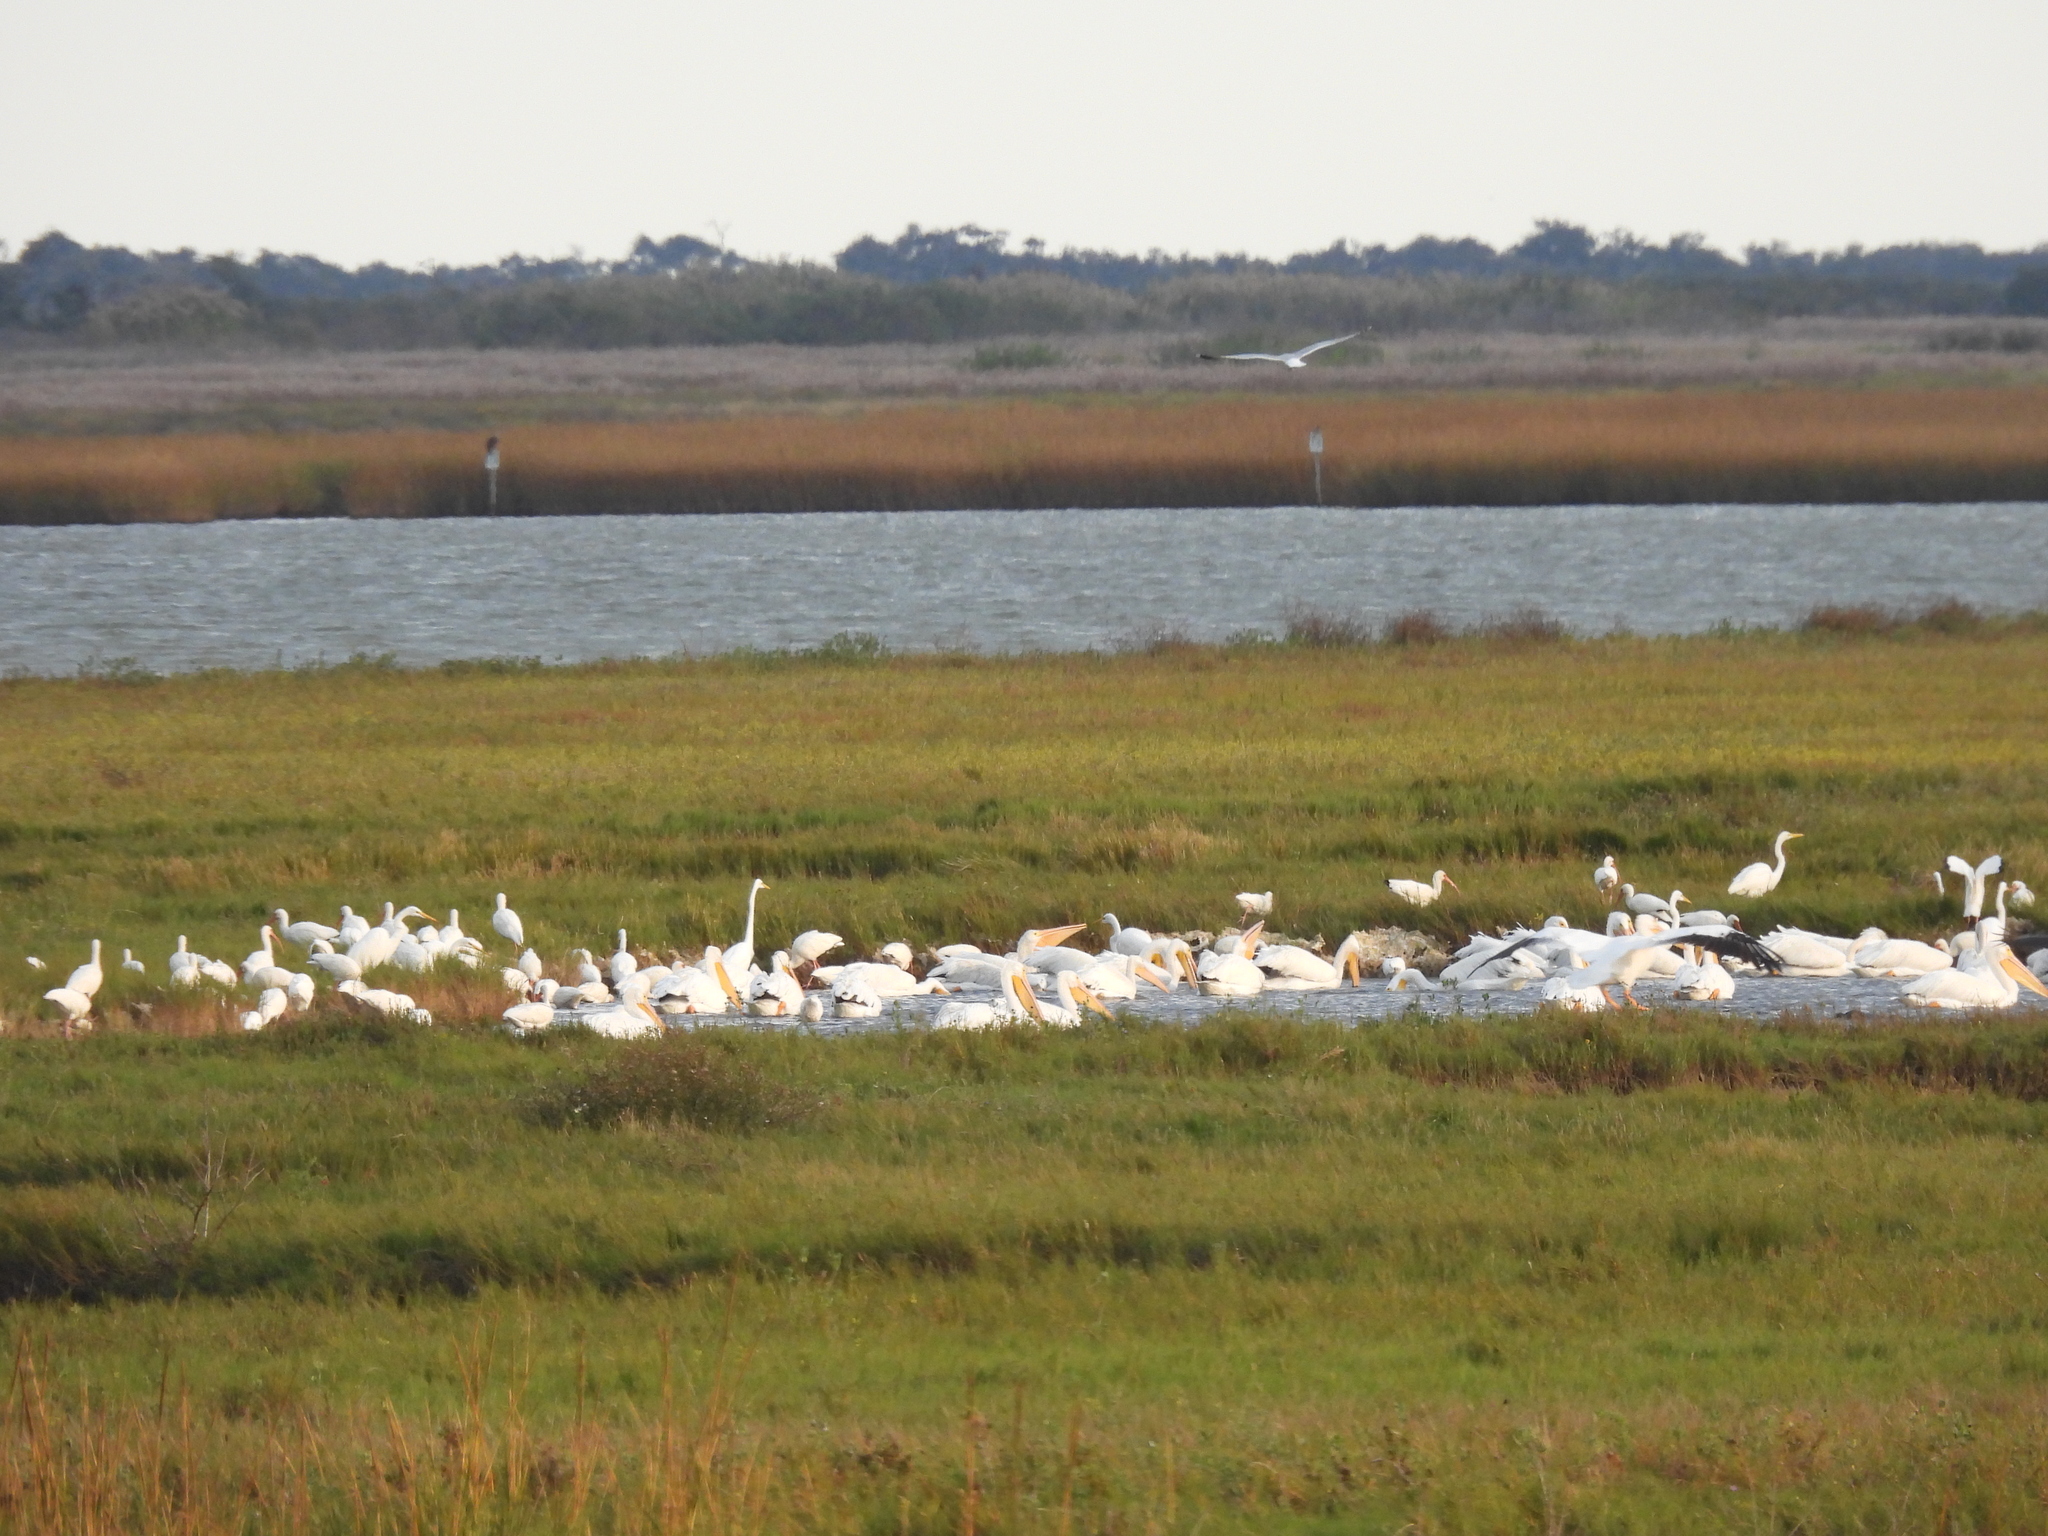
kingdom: Animalia
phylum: Chordata
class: Aves
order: Pelecaniformes
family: Threskiornithidae
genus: Eudocimus
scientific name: Eudocimus albus
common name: White ibis
